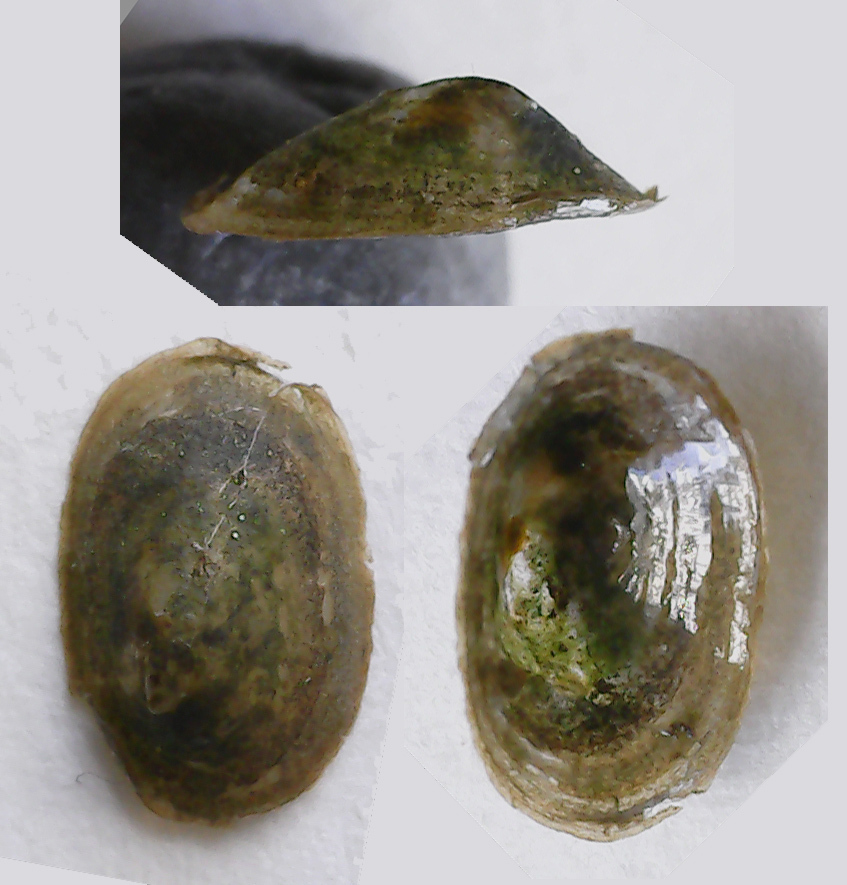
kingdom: Animalia
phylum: Mollusca
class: Gastropoda
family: Acroloxidae
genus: Acroloxus
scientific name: Acroloxus lacustris
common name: Lake limpet
